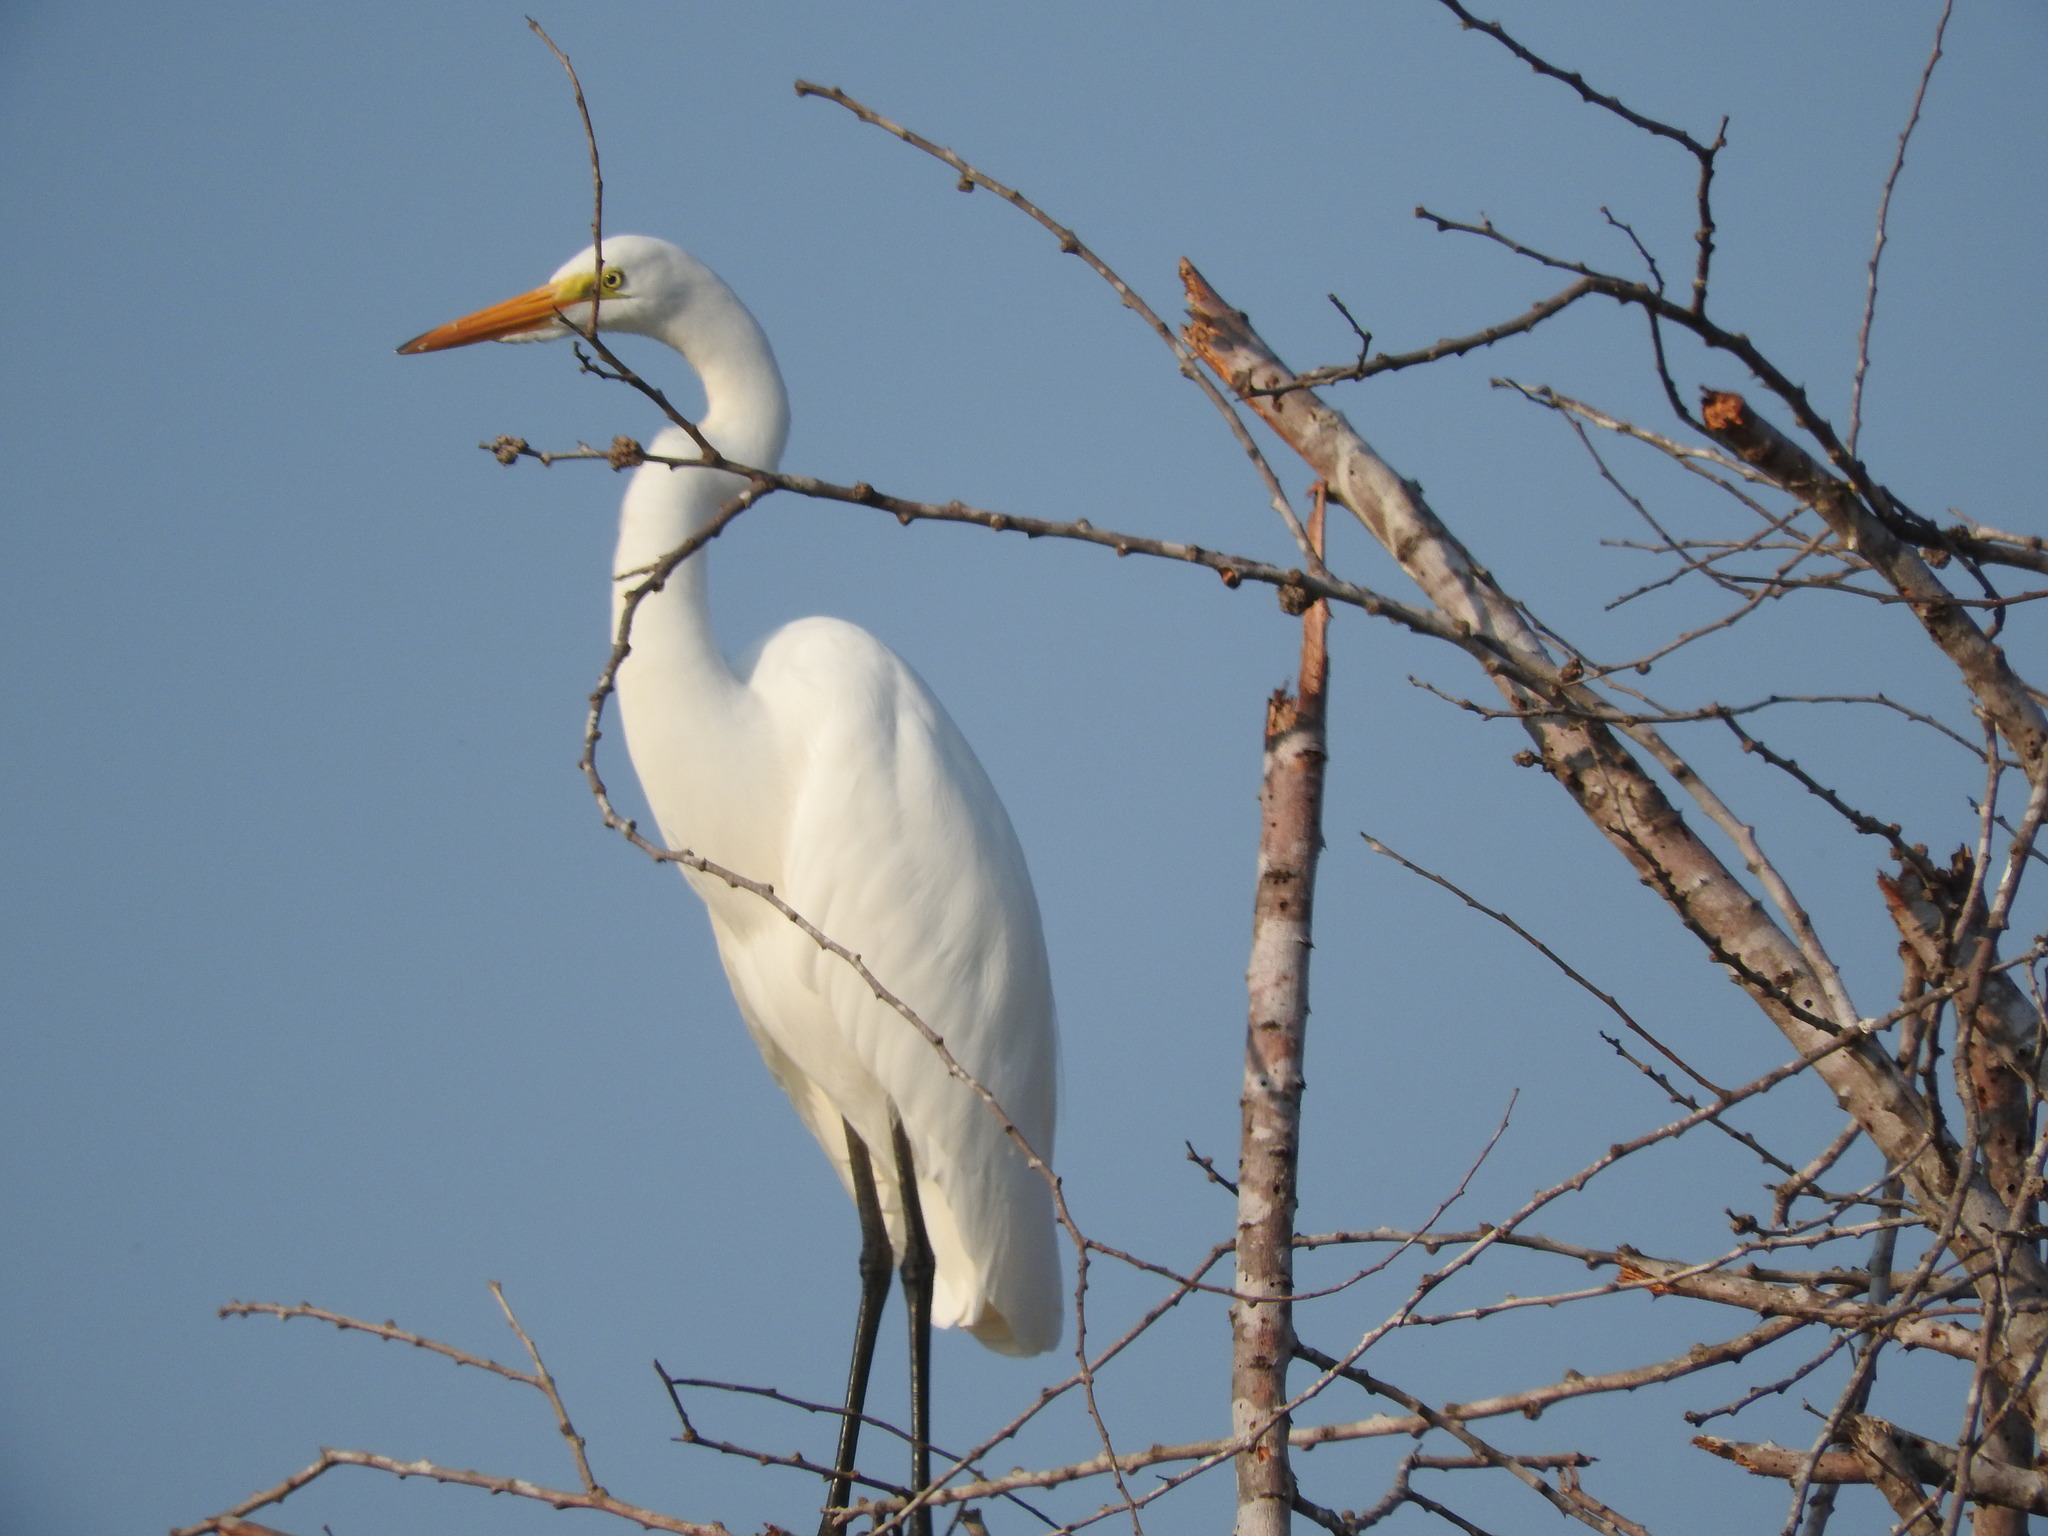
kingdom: Animalia
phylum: Chordata
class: Aves
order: Pelecaniformes
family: Ardeidae
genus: Ardea
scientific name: Ardea alba
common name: Great egret
